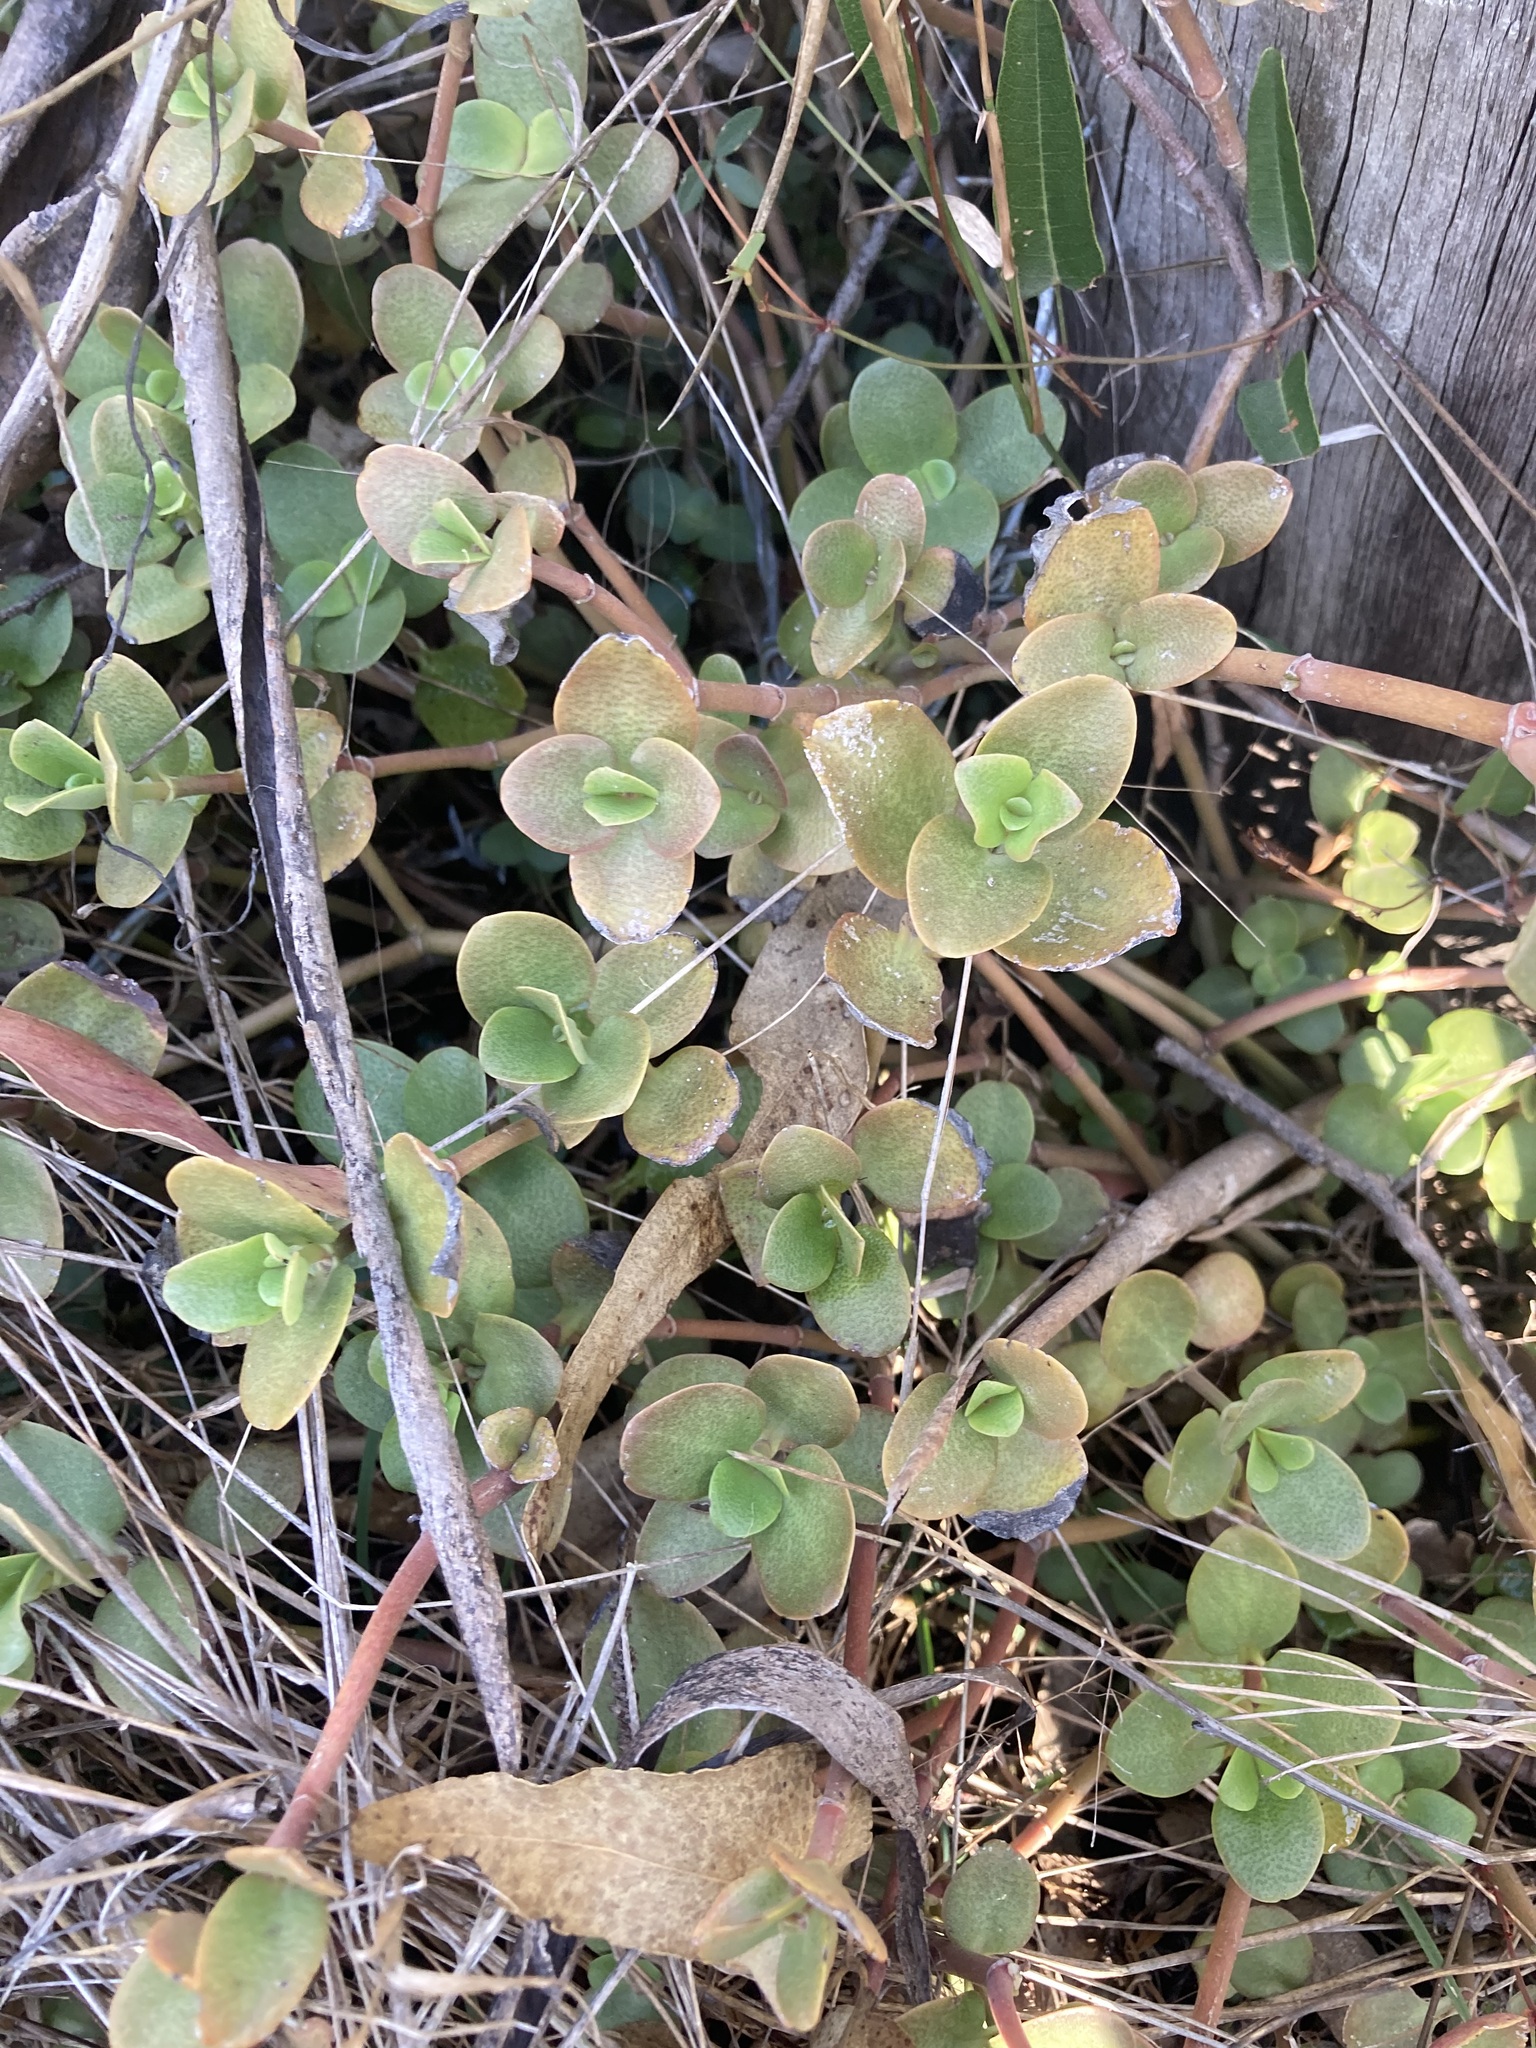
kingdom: Plantae
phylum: Tracheophyta
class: Magnoliopsida
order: Saxifragales
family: Crassulaceae
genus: Crassula
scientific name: Crassula multicava
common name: Cape province pygmyweed
